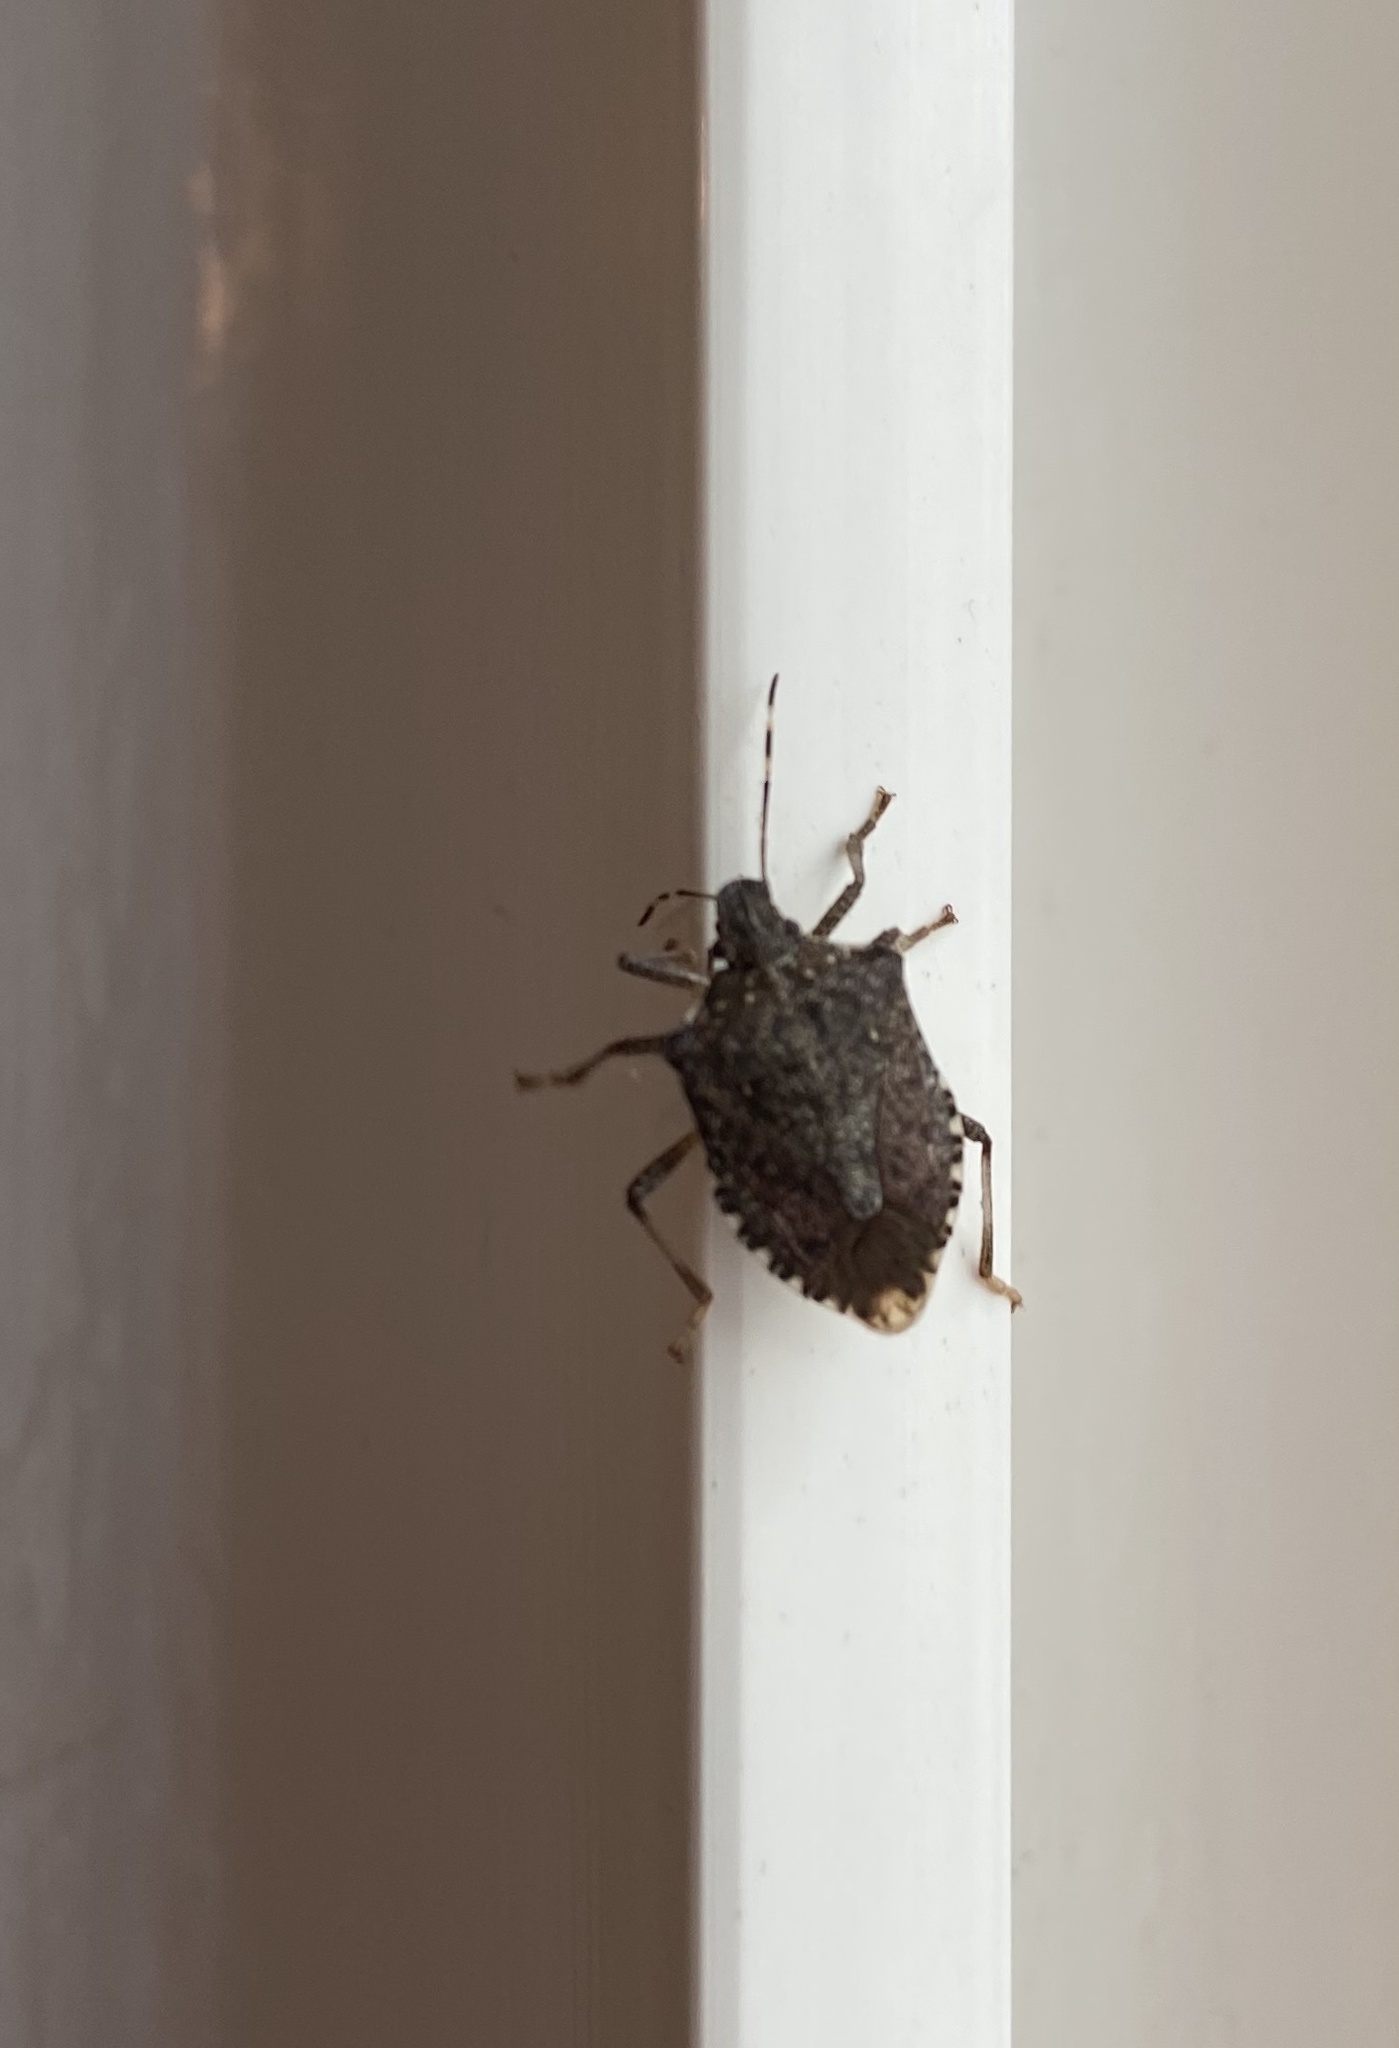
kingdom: Animalia
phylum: Arthropoda
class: Insecta
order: Hemiptera
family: Pentatomidae
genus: Halyomorpha
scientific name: Halyomorpha halys
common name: Brown marmorated stink bug
